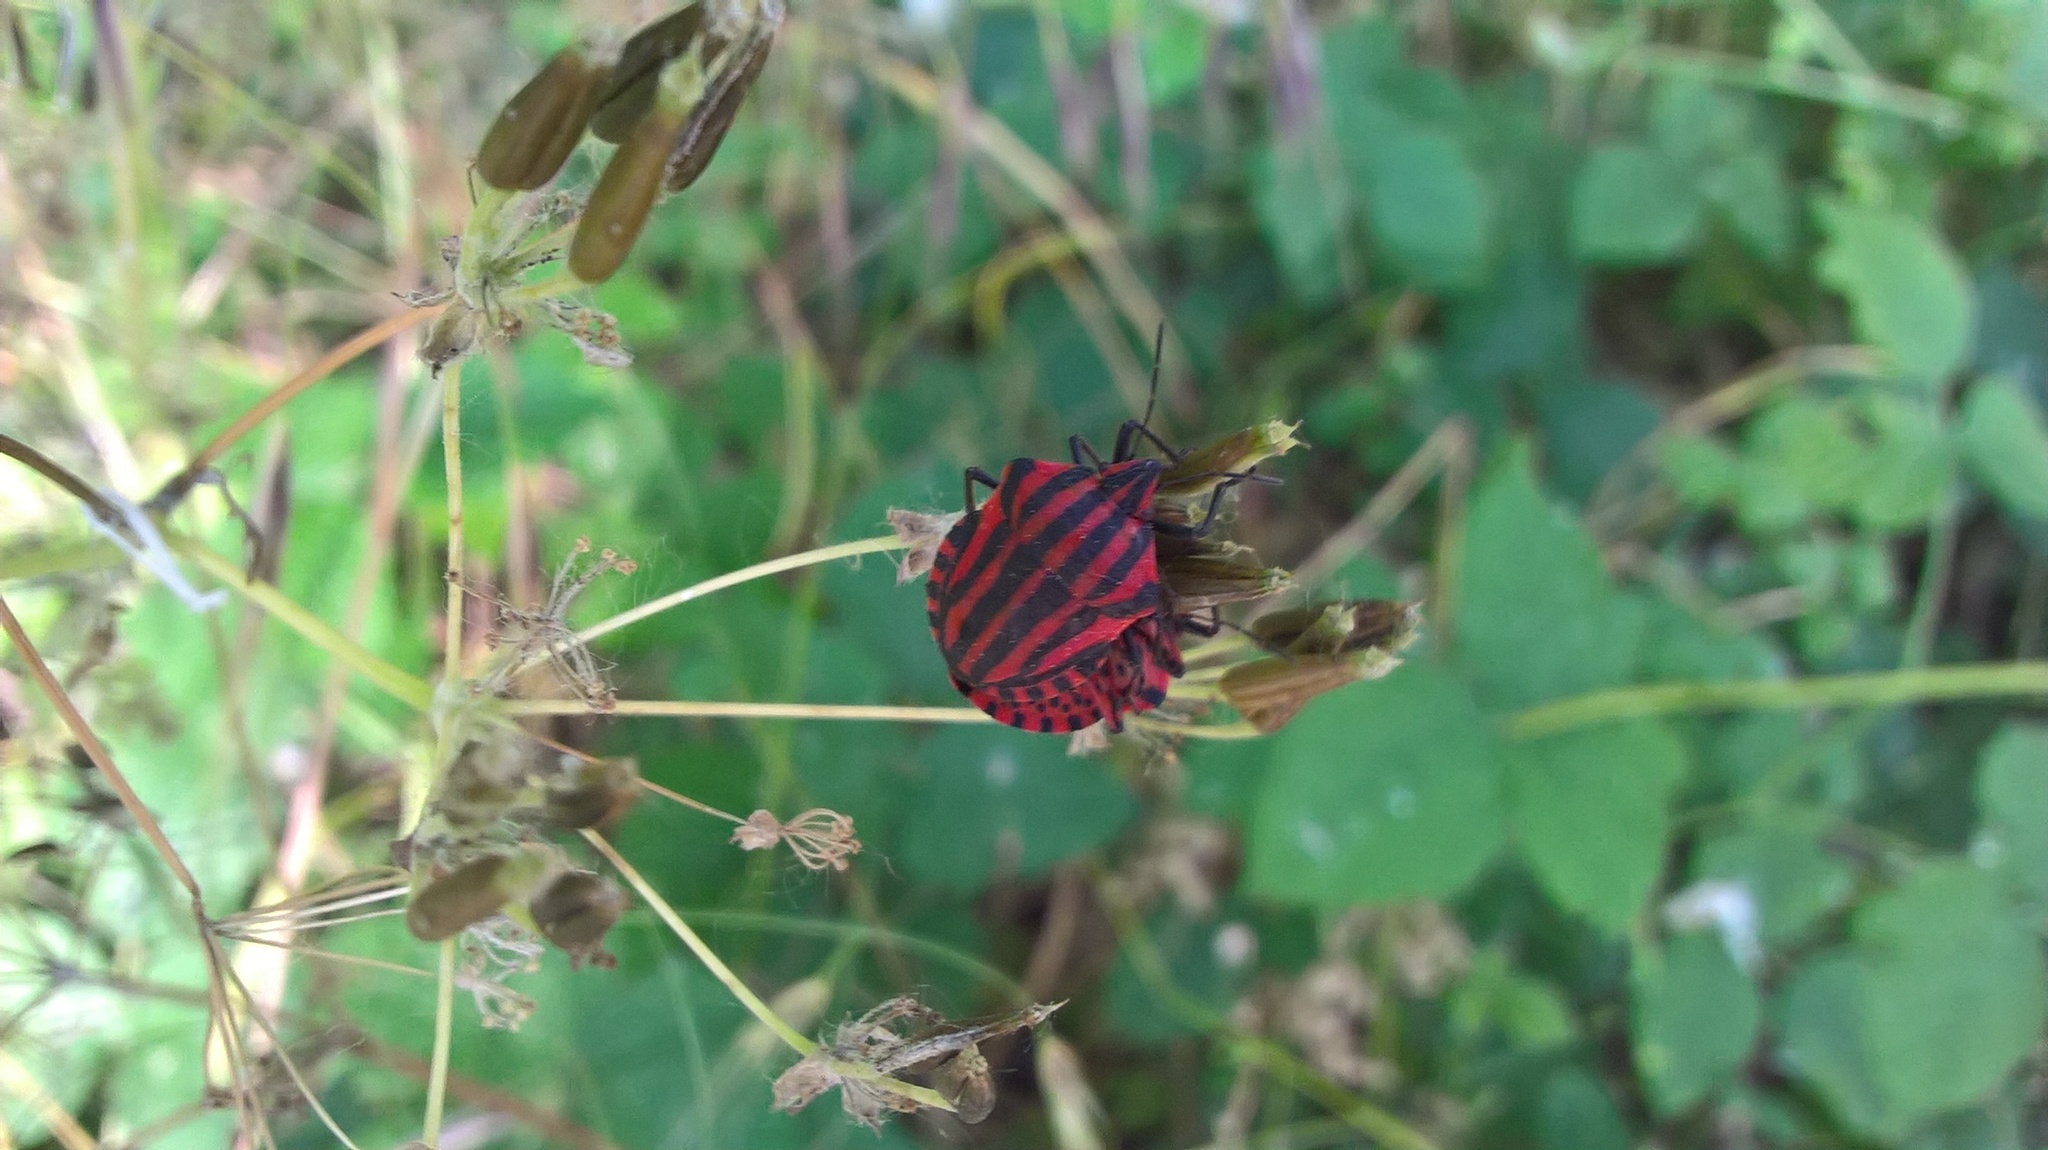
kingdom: Animalia
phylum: Arthropoda
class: Insecta
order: Hemiptera
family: Pentatomidae
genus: Graphosoma
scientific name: Graphosoma italicum
